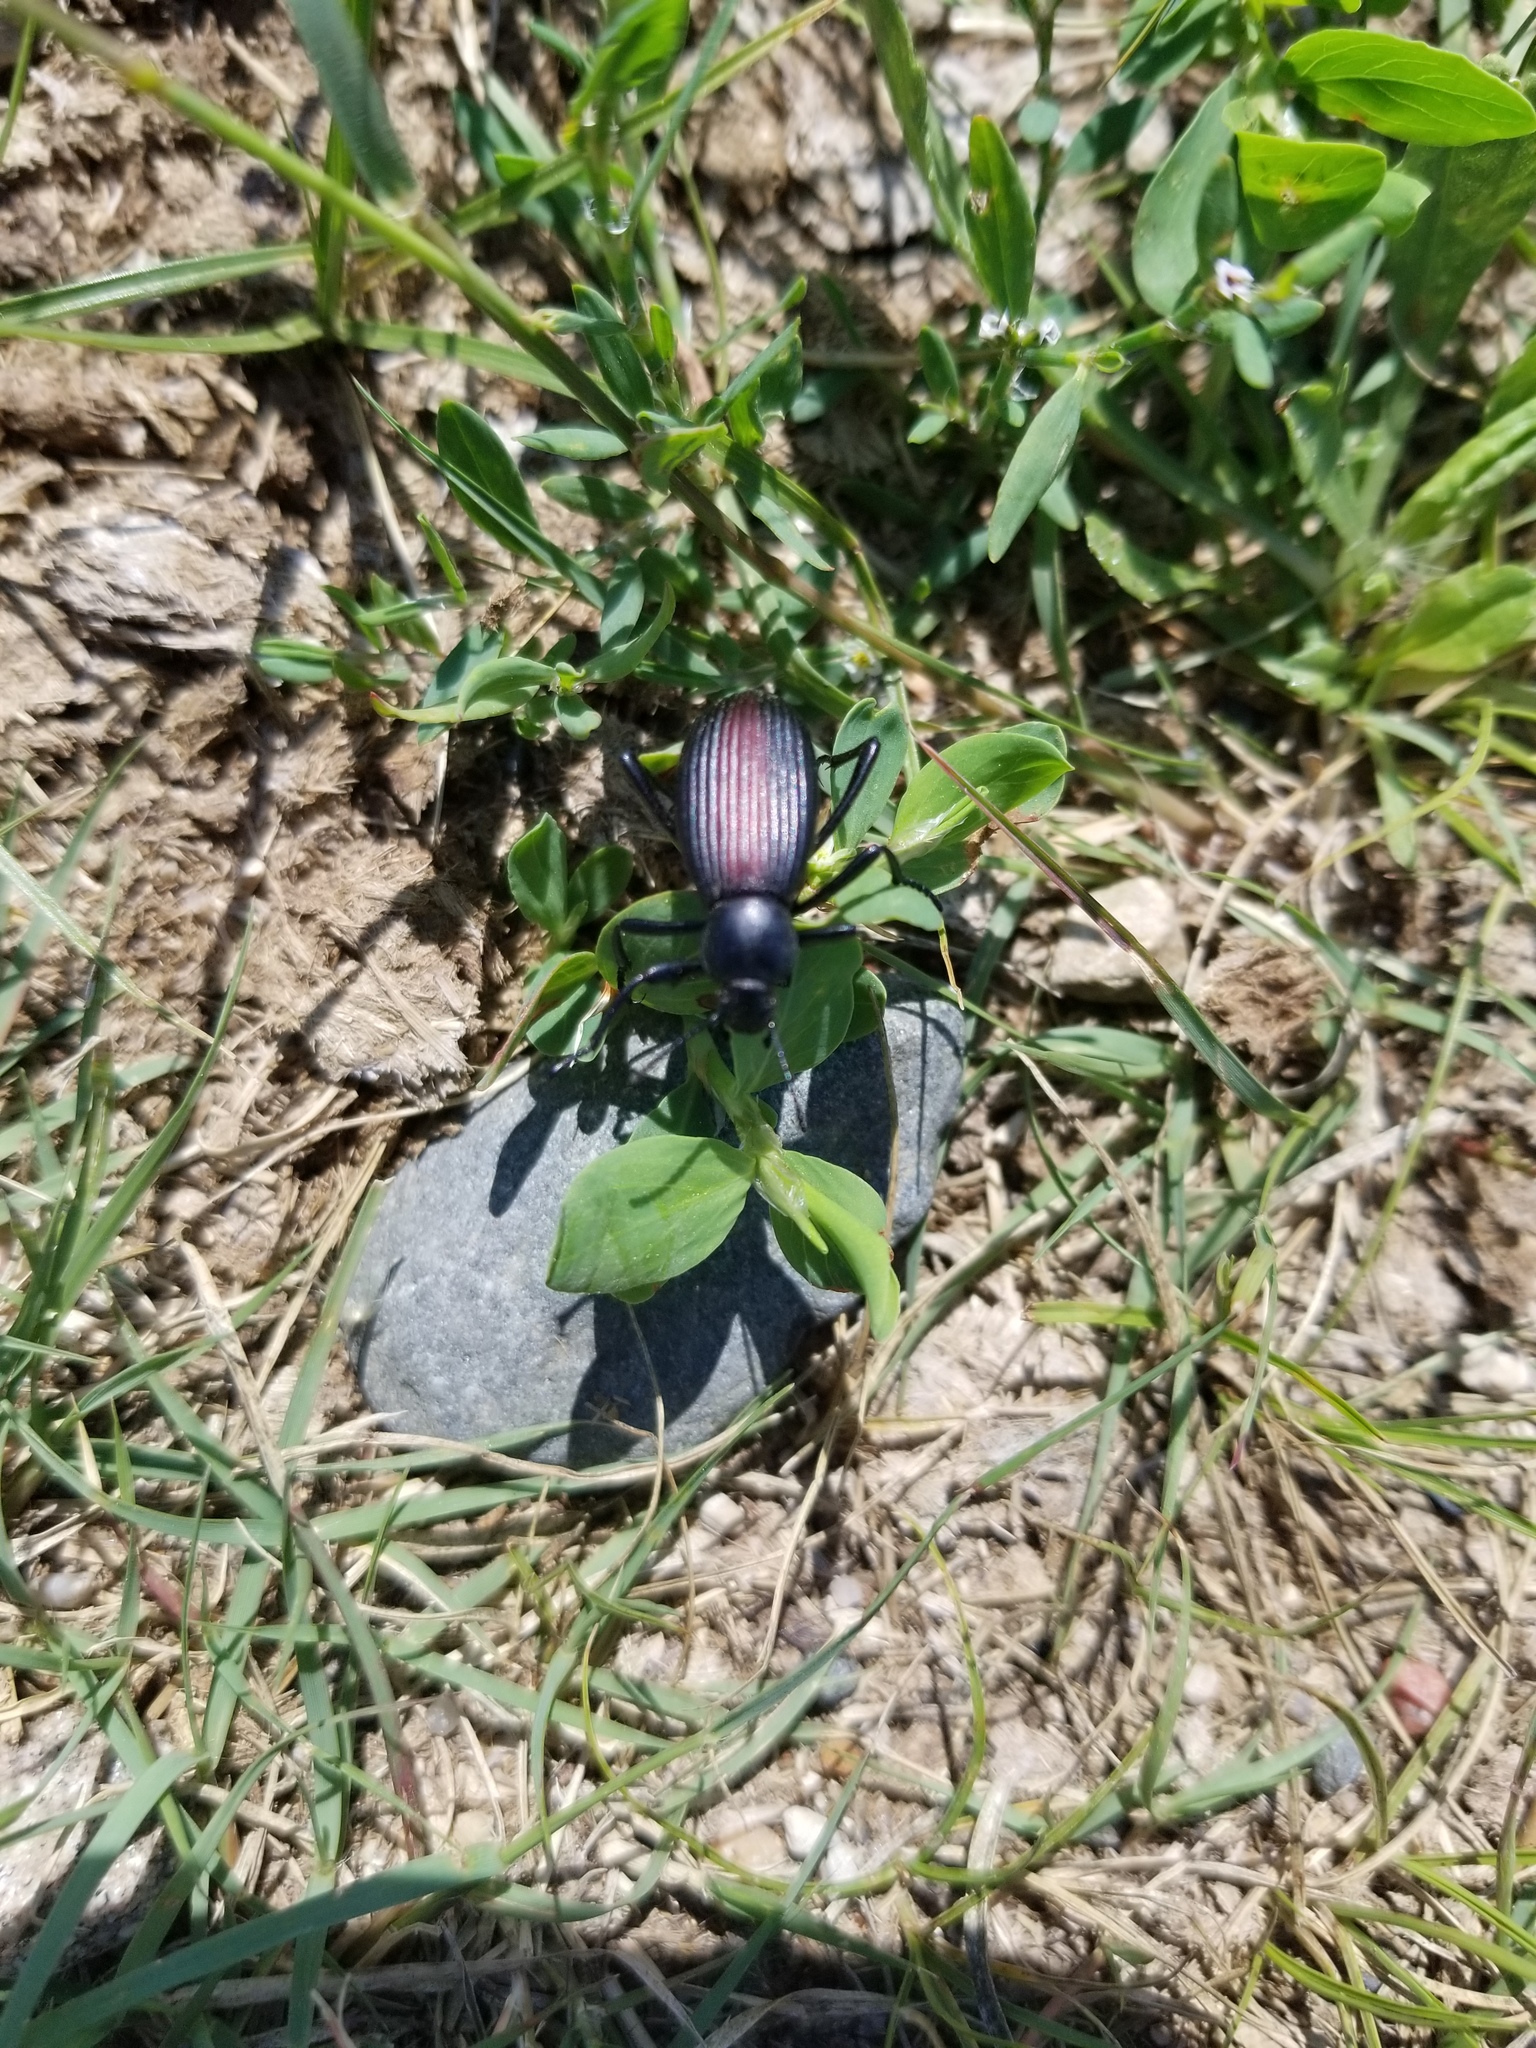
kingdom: Animalia
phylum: Arthropoda
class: Insecta
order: Coleoptera
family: Tenebrionidae
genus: Eleodes
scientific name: Eleodes hispilabris
